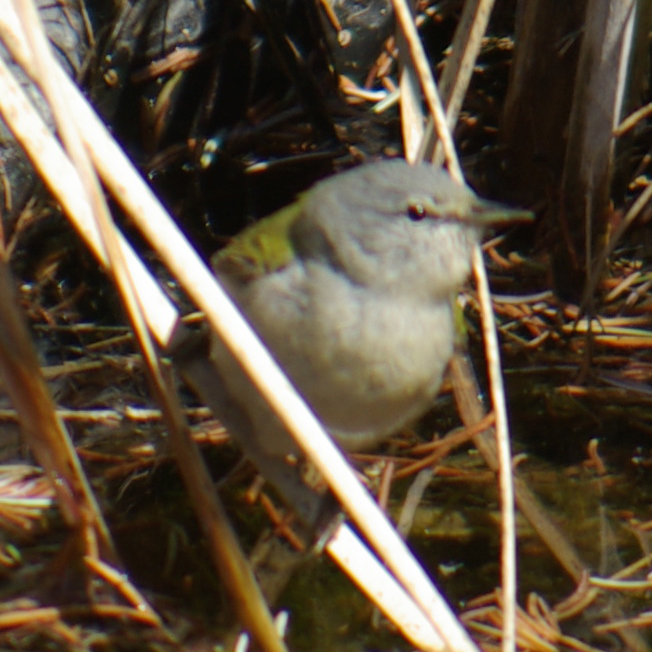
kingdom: Animalia
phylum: Chordata
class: Aves
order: Passeriformes
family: Parulidae
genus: Leiothlypis
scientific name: Leiothlypis peregrina
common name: Tennessee warbler
